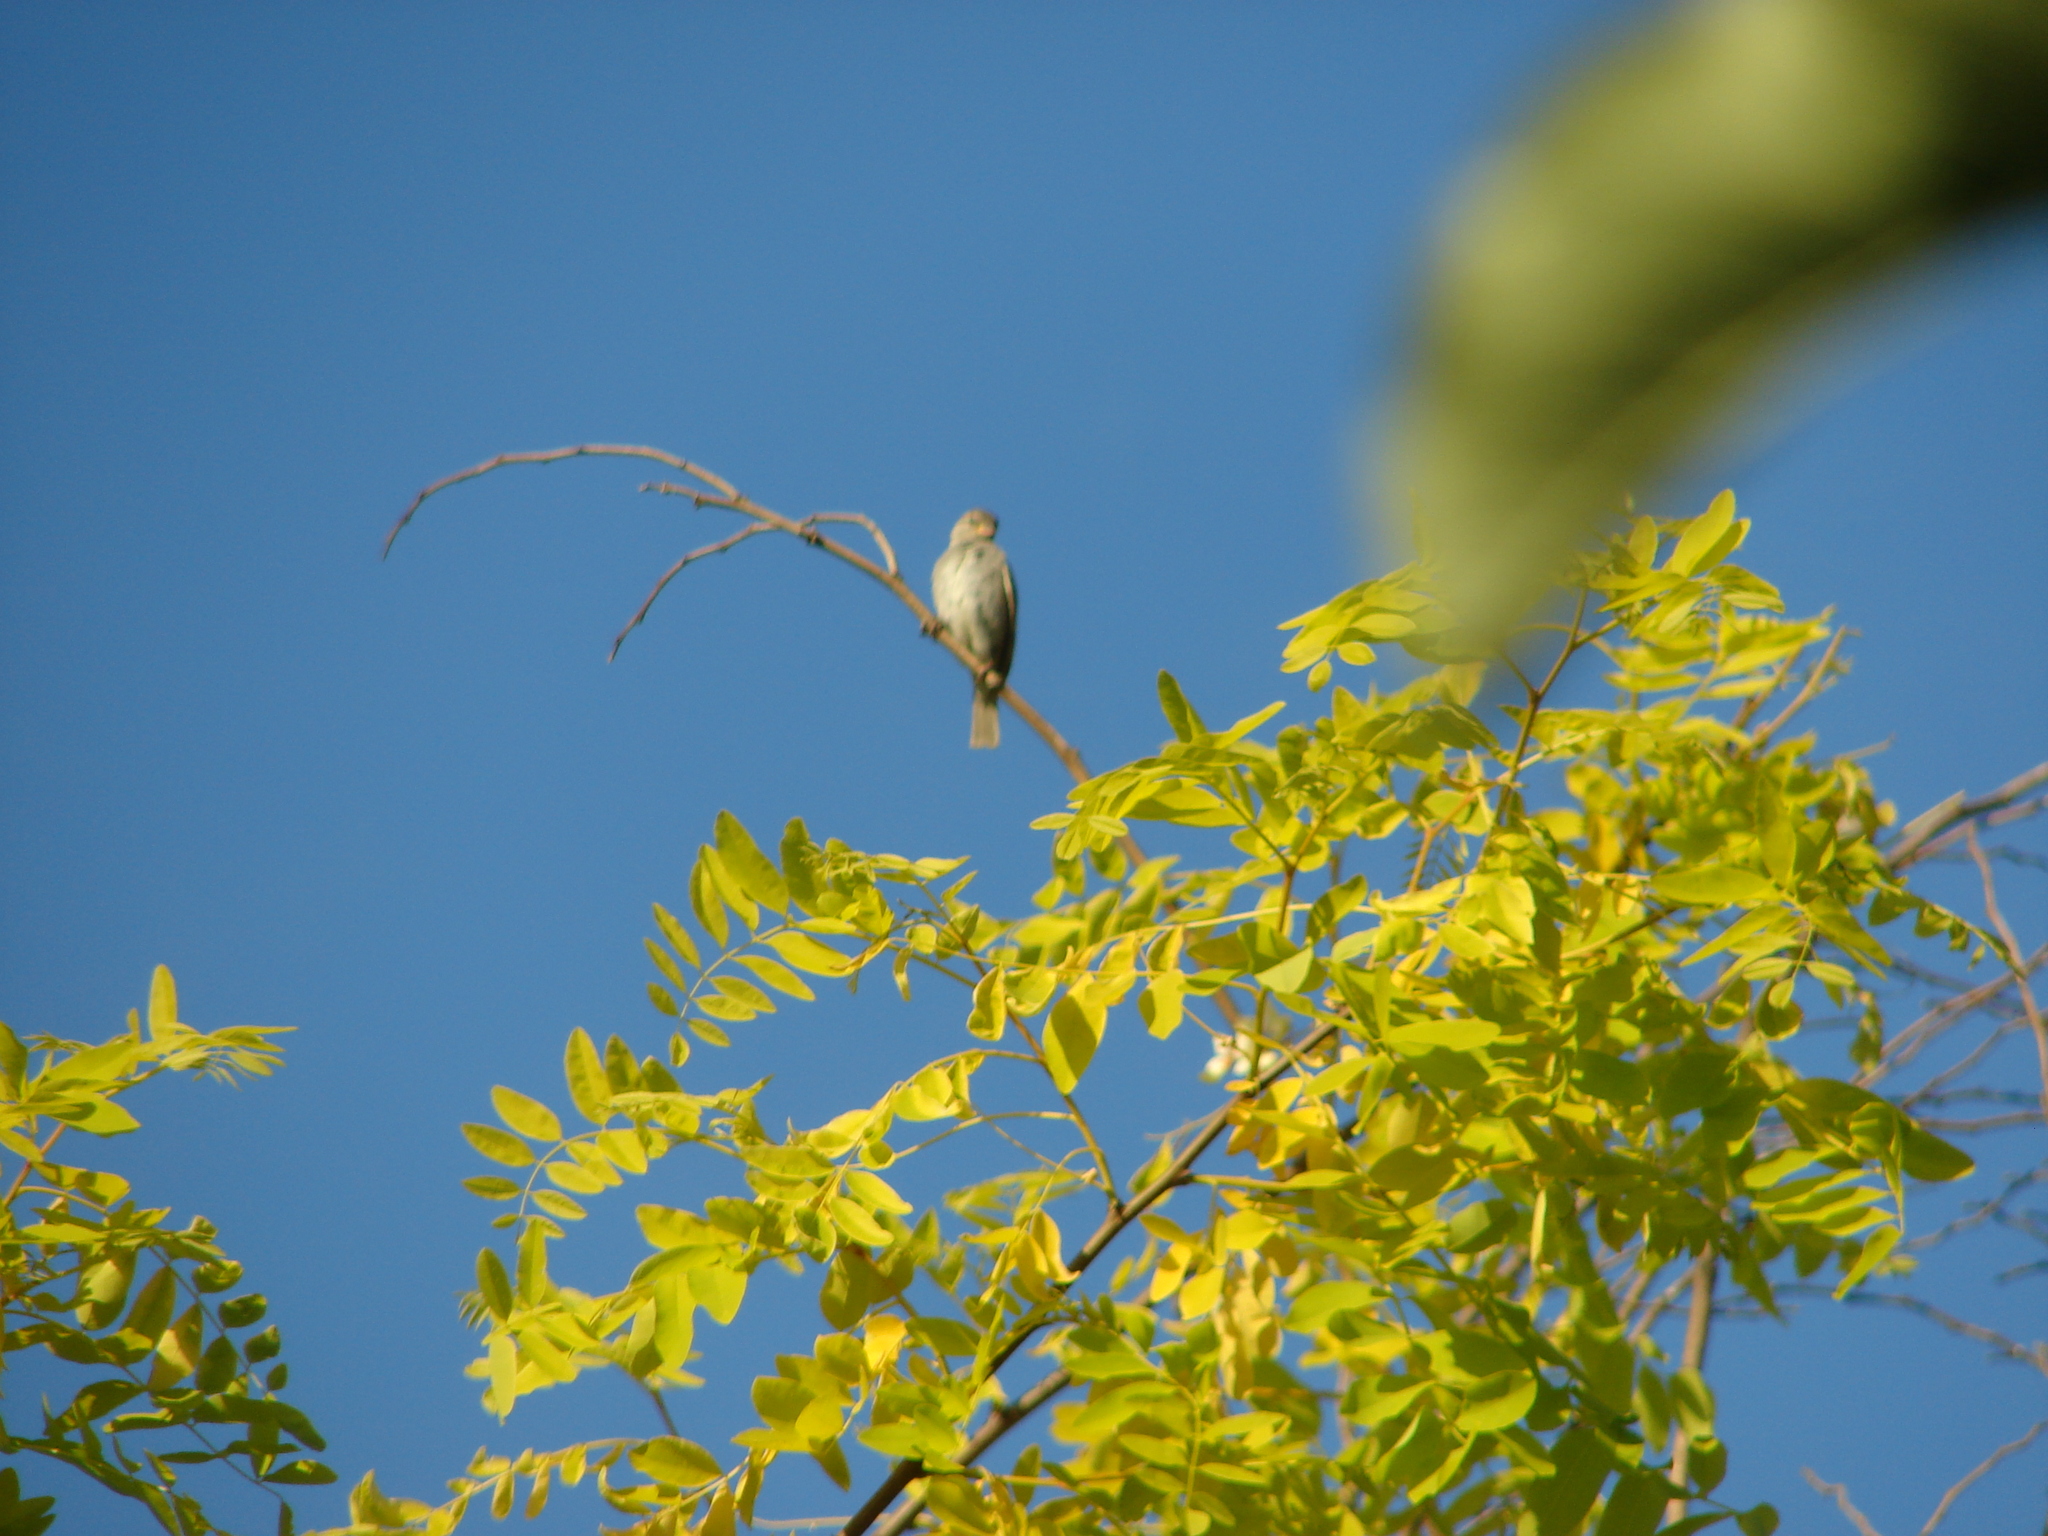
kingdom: Animalia
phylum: Chordata
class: Aves
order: Passeriformes
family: Passeridae
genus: Passer
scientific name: Passer domesticus
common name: House sparrow
